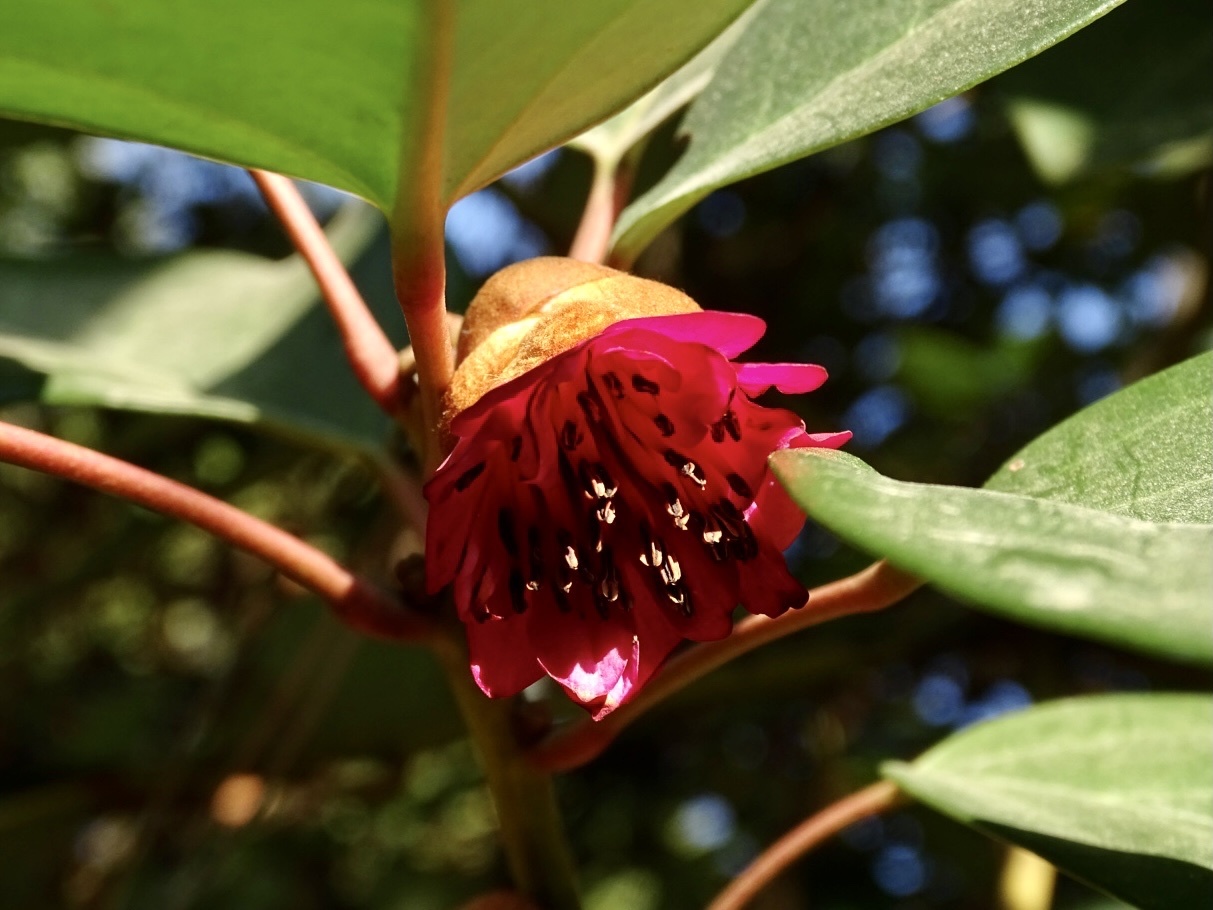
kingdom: Plantae
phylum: Tracheophyta
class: Magnoliopsida
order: Saxifragales
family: Hamamelidaceae
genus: Rhodoleia
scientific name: Rhodoleia championii
